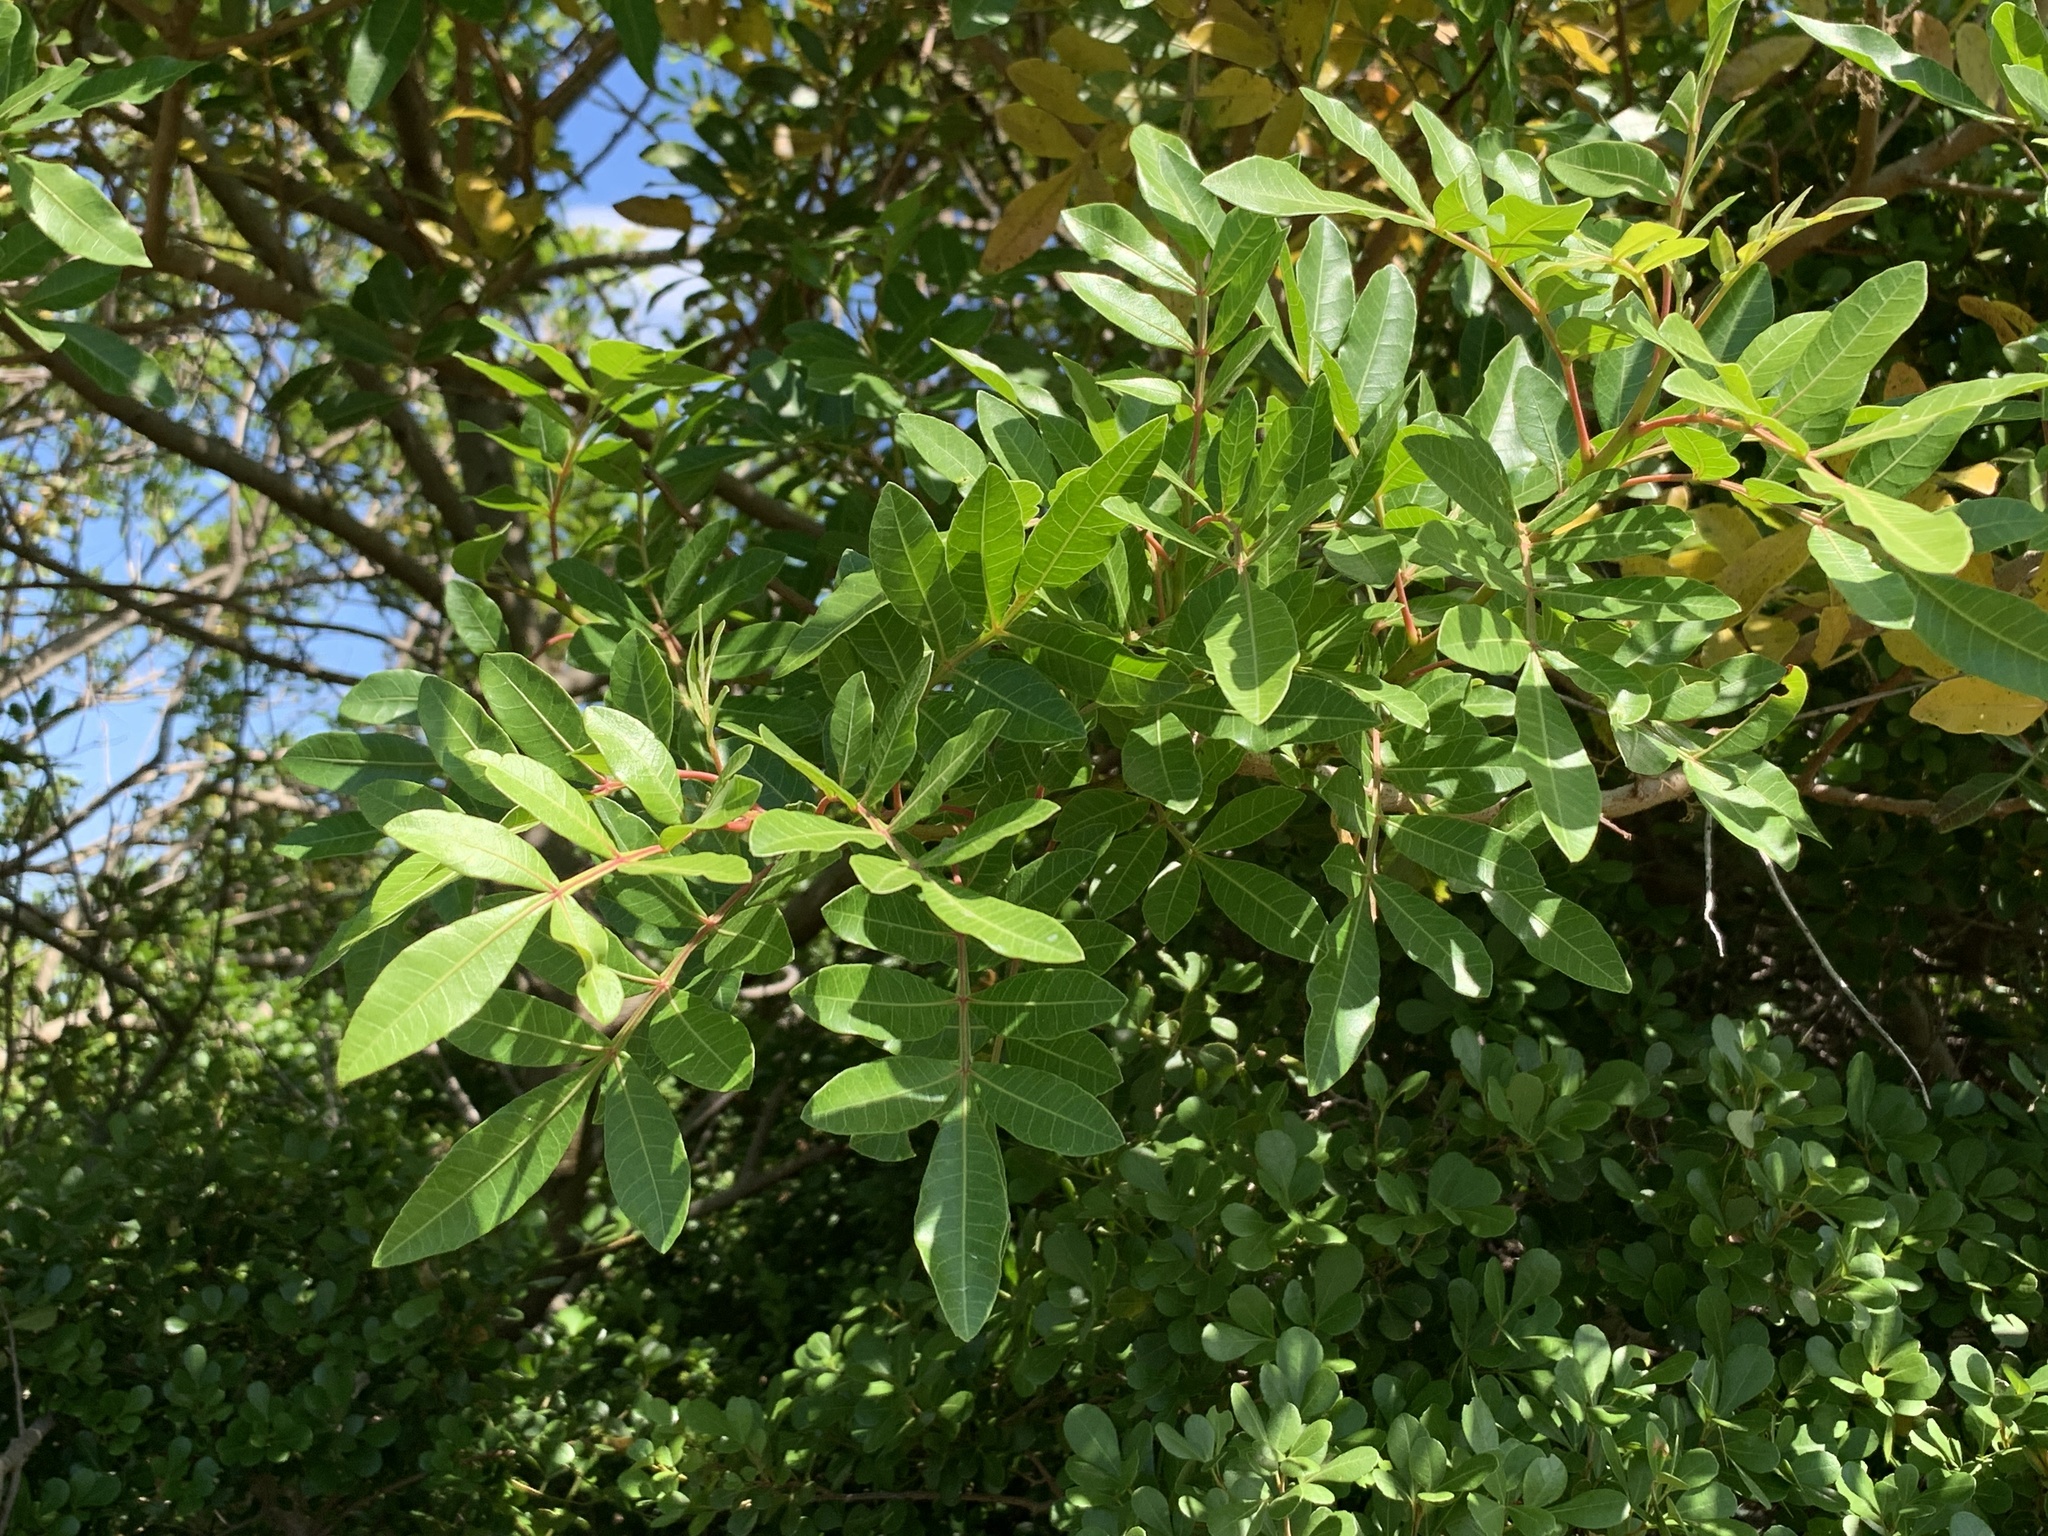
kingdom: Plantae
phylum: Tracheophyta
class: Magnoliopsida
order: Sapindales
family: Anacardiaceae
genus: Schinus
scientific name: Schinus terebinthifolia
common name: Brazilian peppertree
